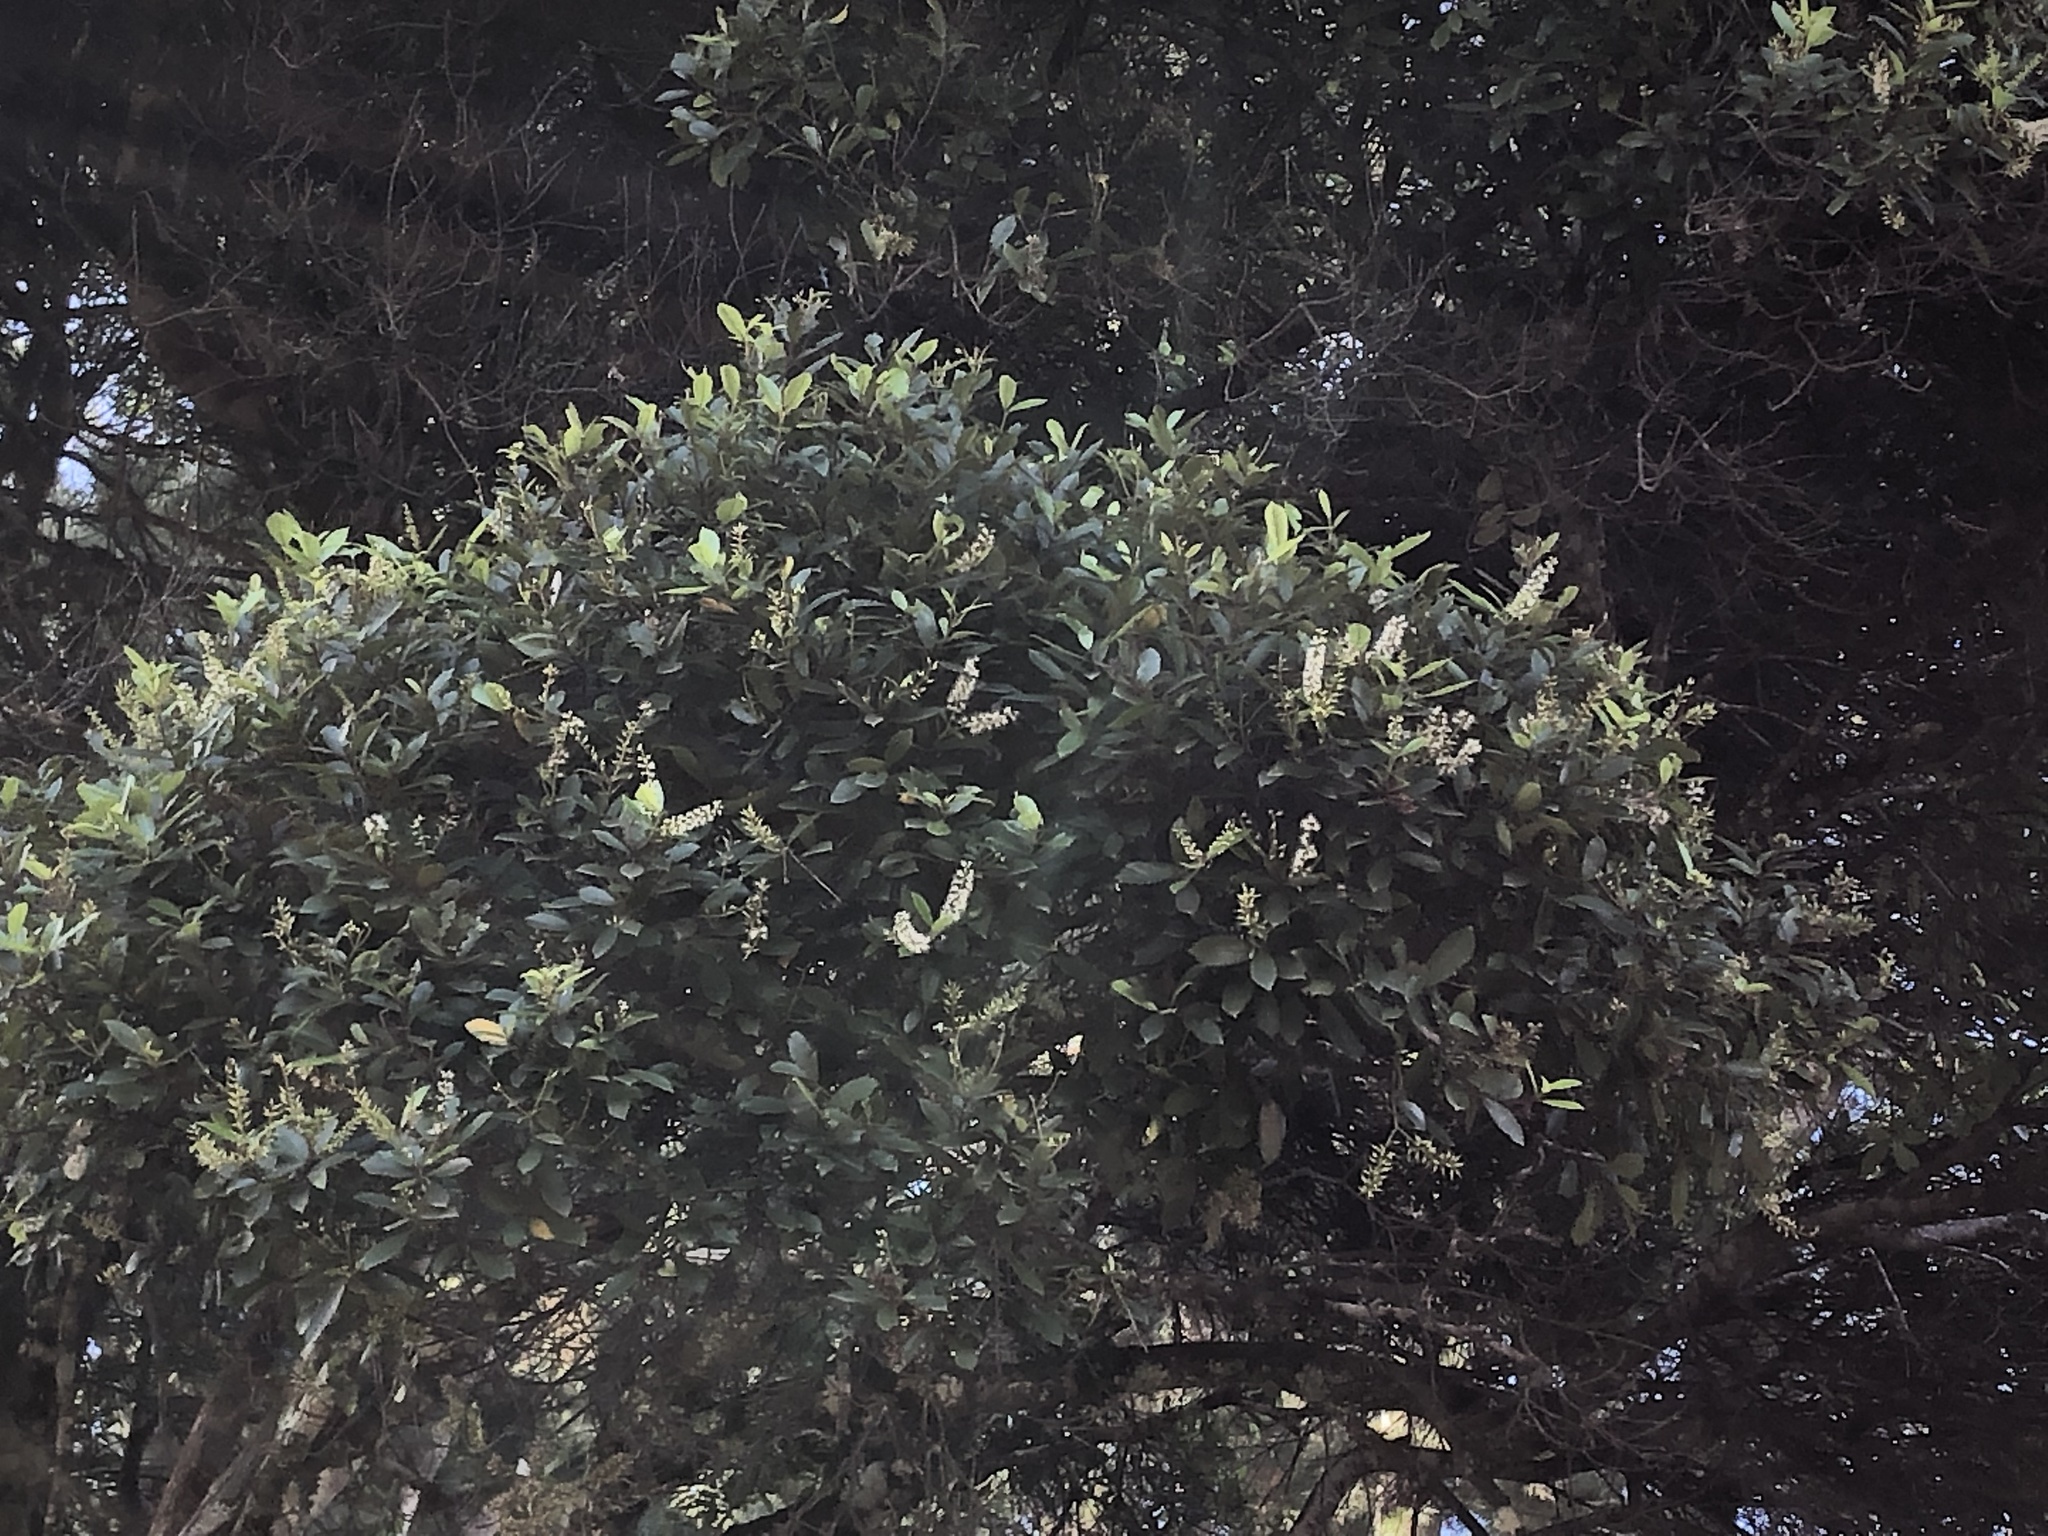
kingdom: Plantae
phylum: Tracheophyta
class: Magnoliopsida
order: Oxalidales
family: Cunoniaceae
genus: Pterophylla
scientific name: Pterophylla sylvicola
